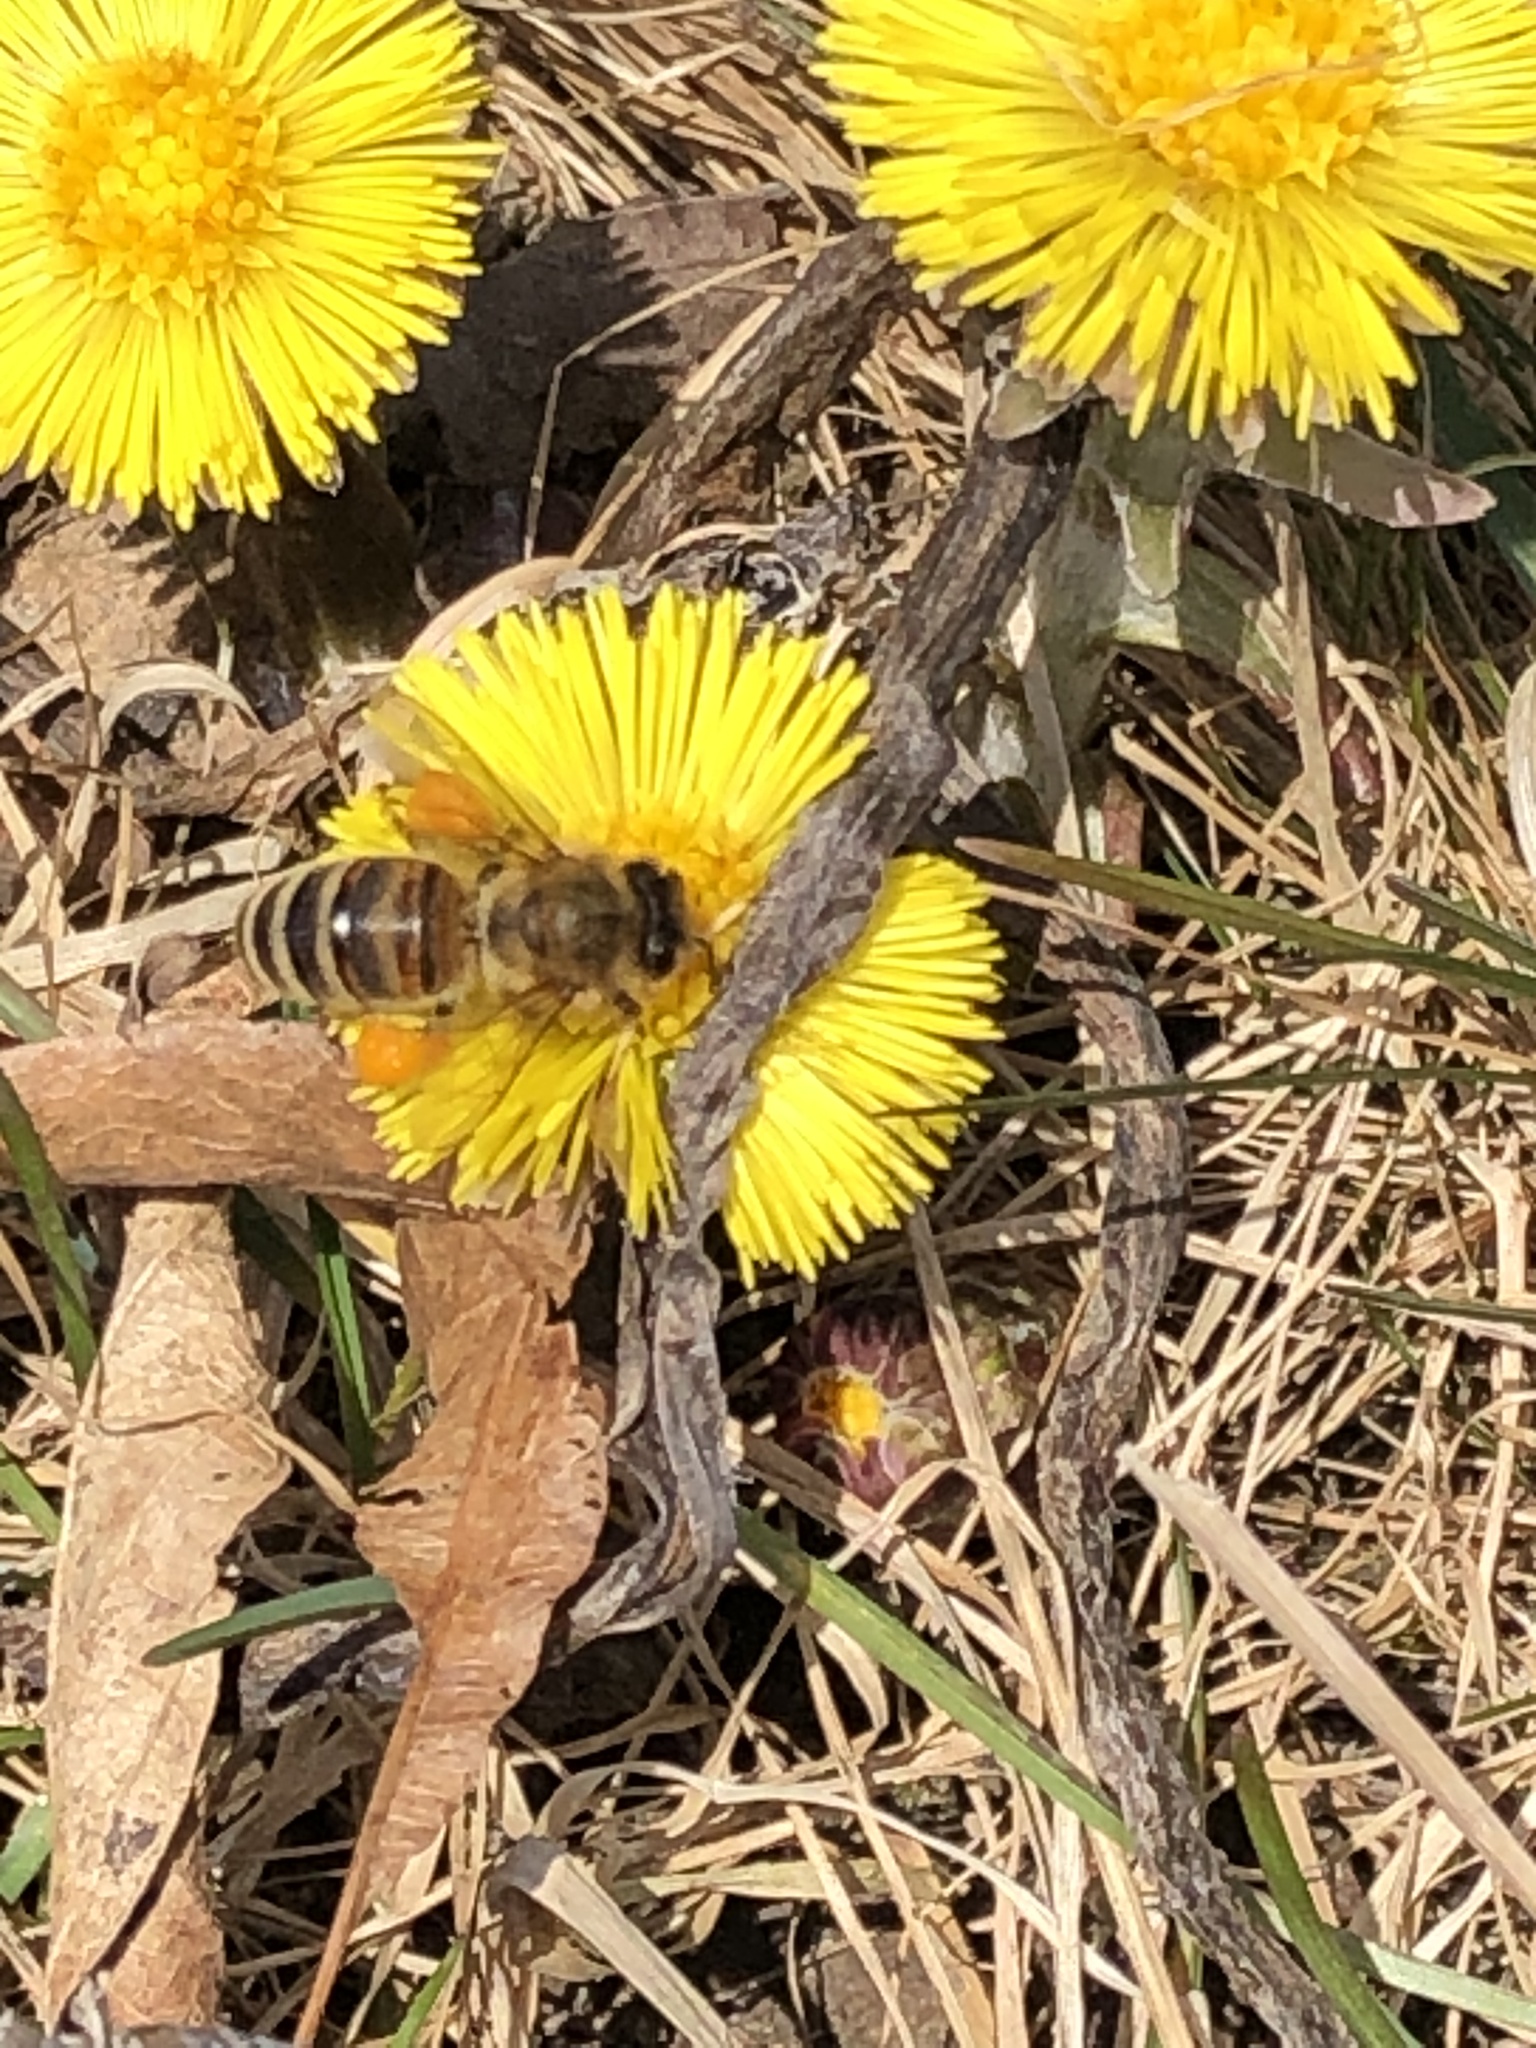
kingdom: Animalia
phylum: Arthropoda
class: Insecta
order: Hymenoptera
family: Apidae
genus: Apis
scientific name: Apis mellifera
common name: Honey bee
